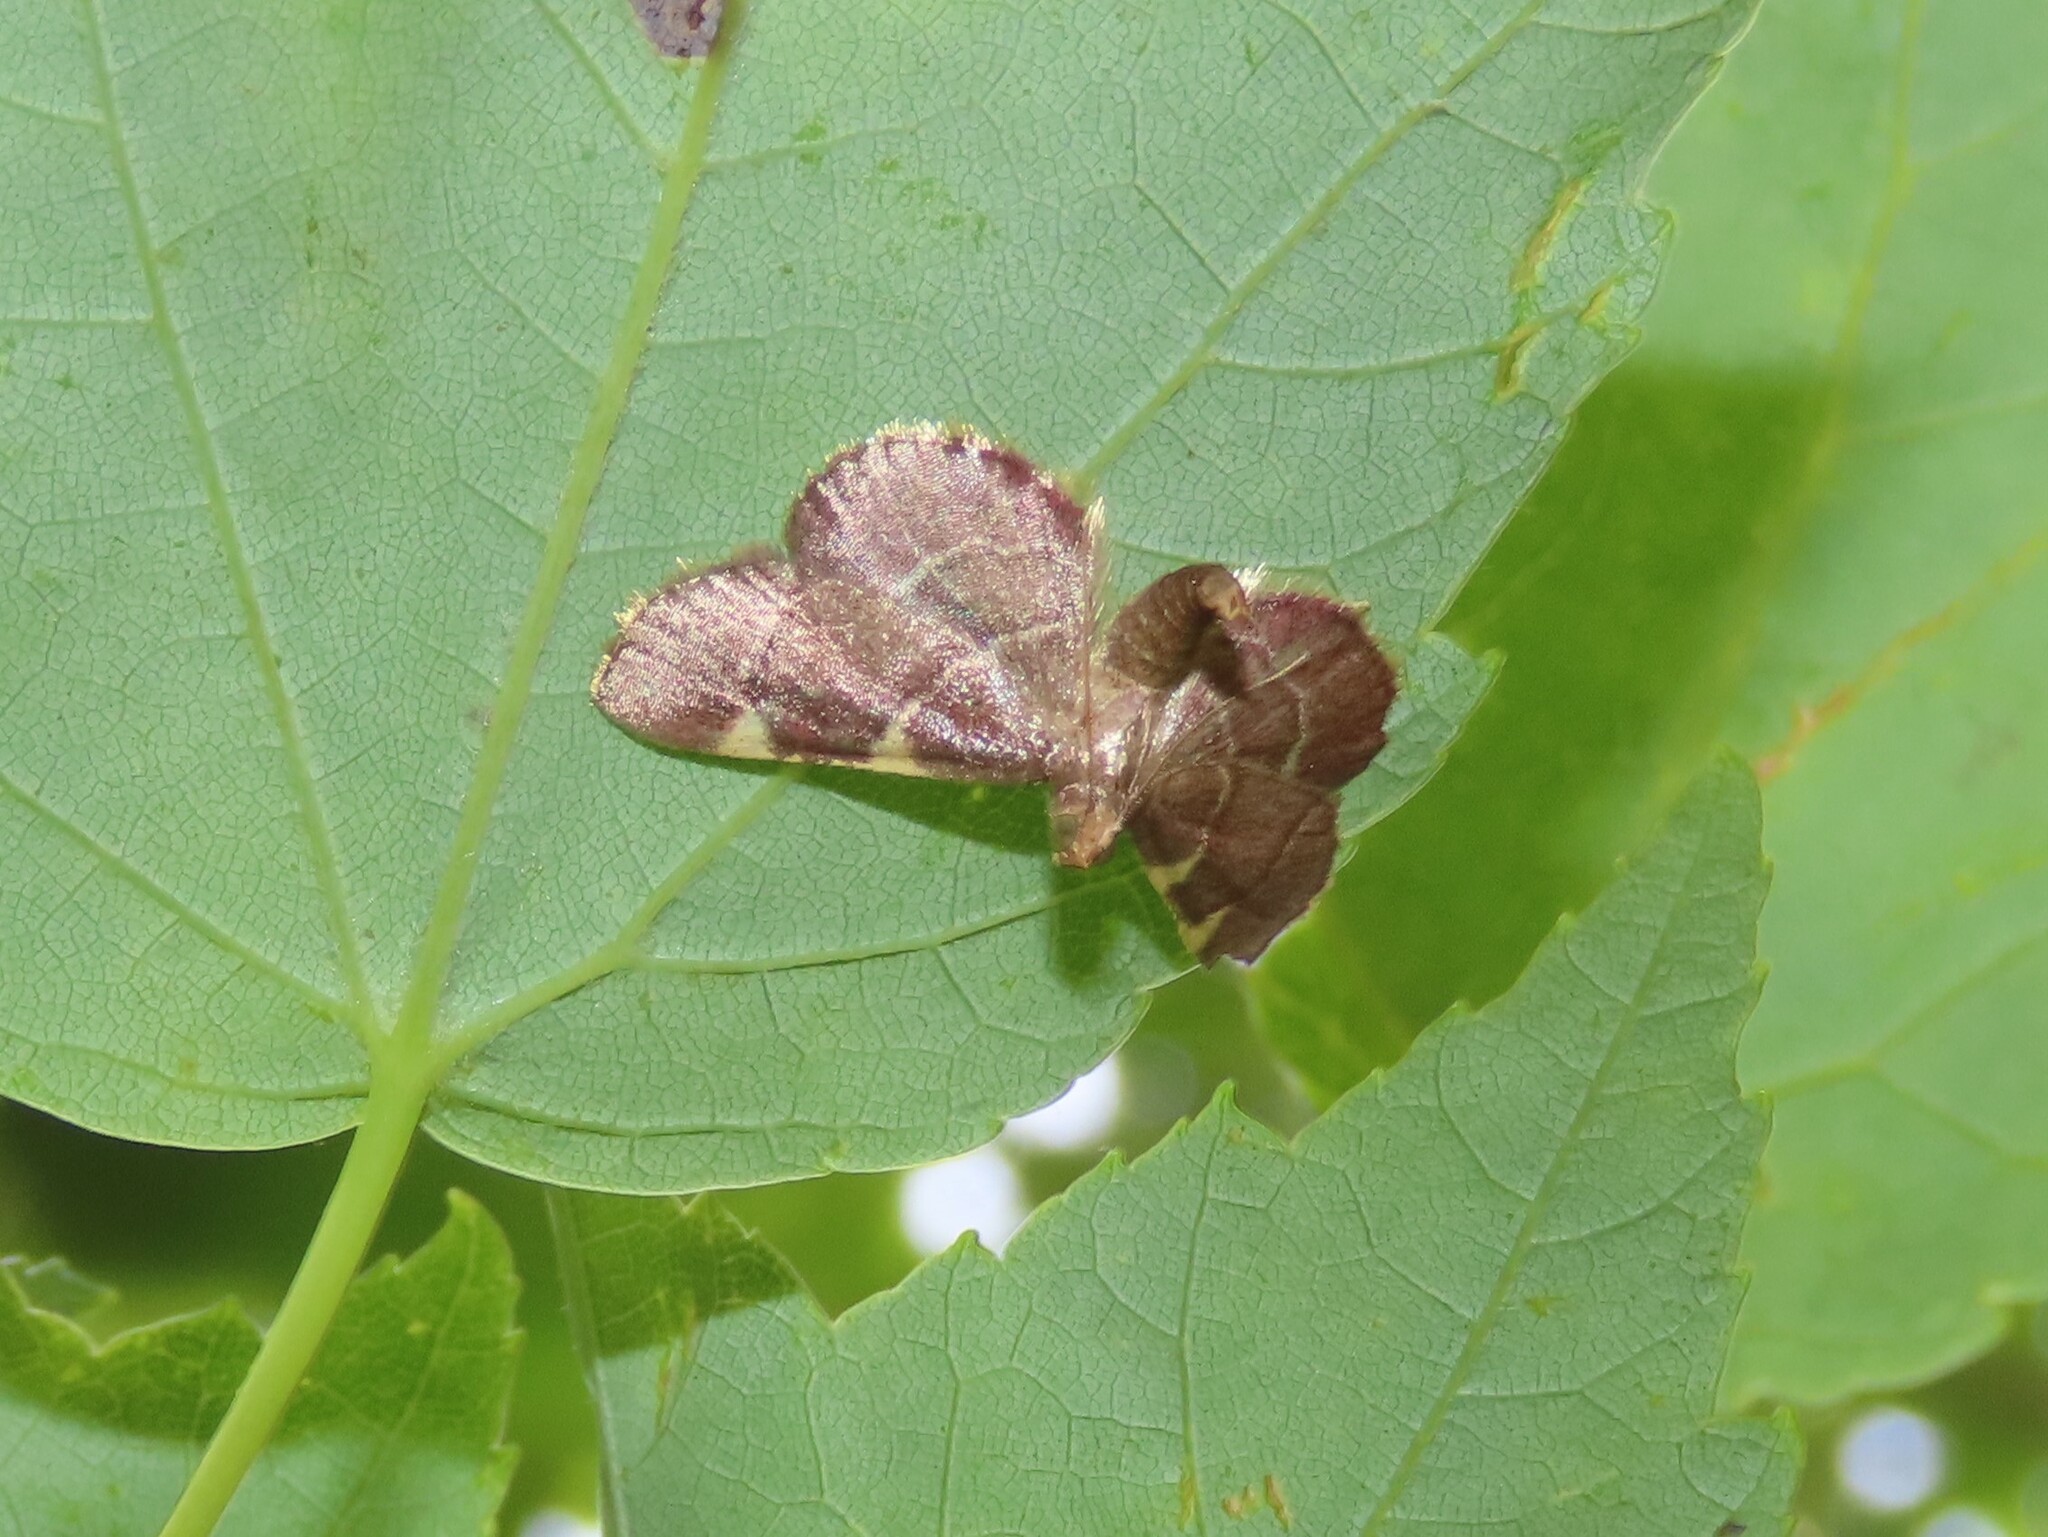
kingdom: Animalia
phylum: Arthropoda
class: Insecta
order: Lepidoptera
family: Pyralidae
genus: Hypsopygia
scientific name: Hypsopygia olinalis
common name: Yellow-fringed dolichomia moth
